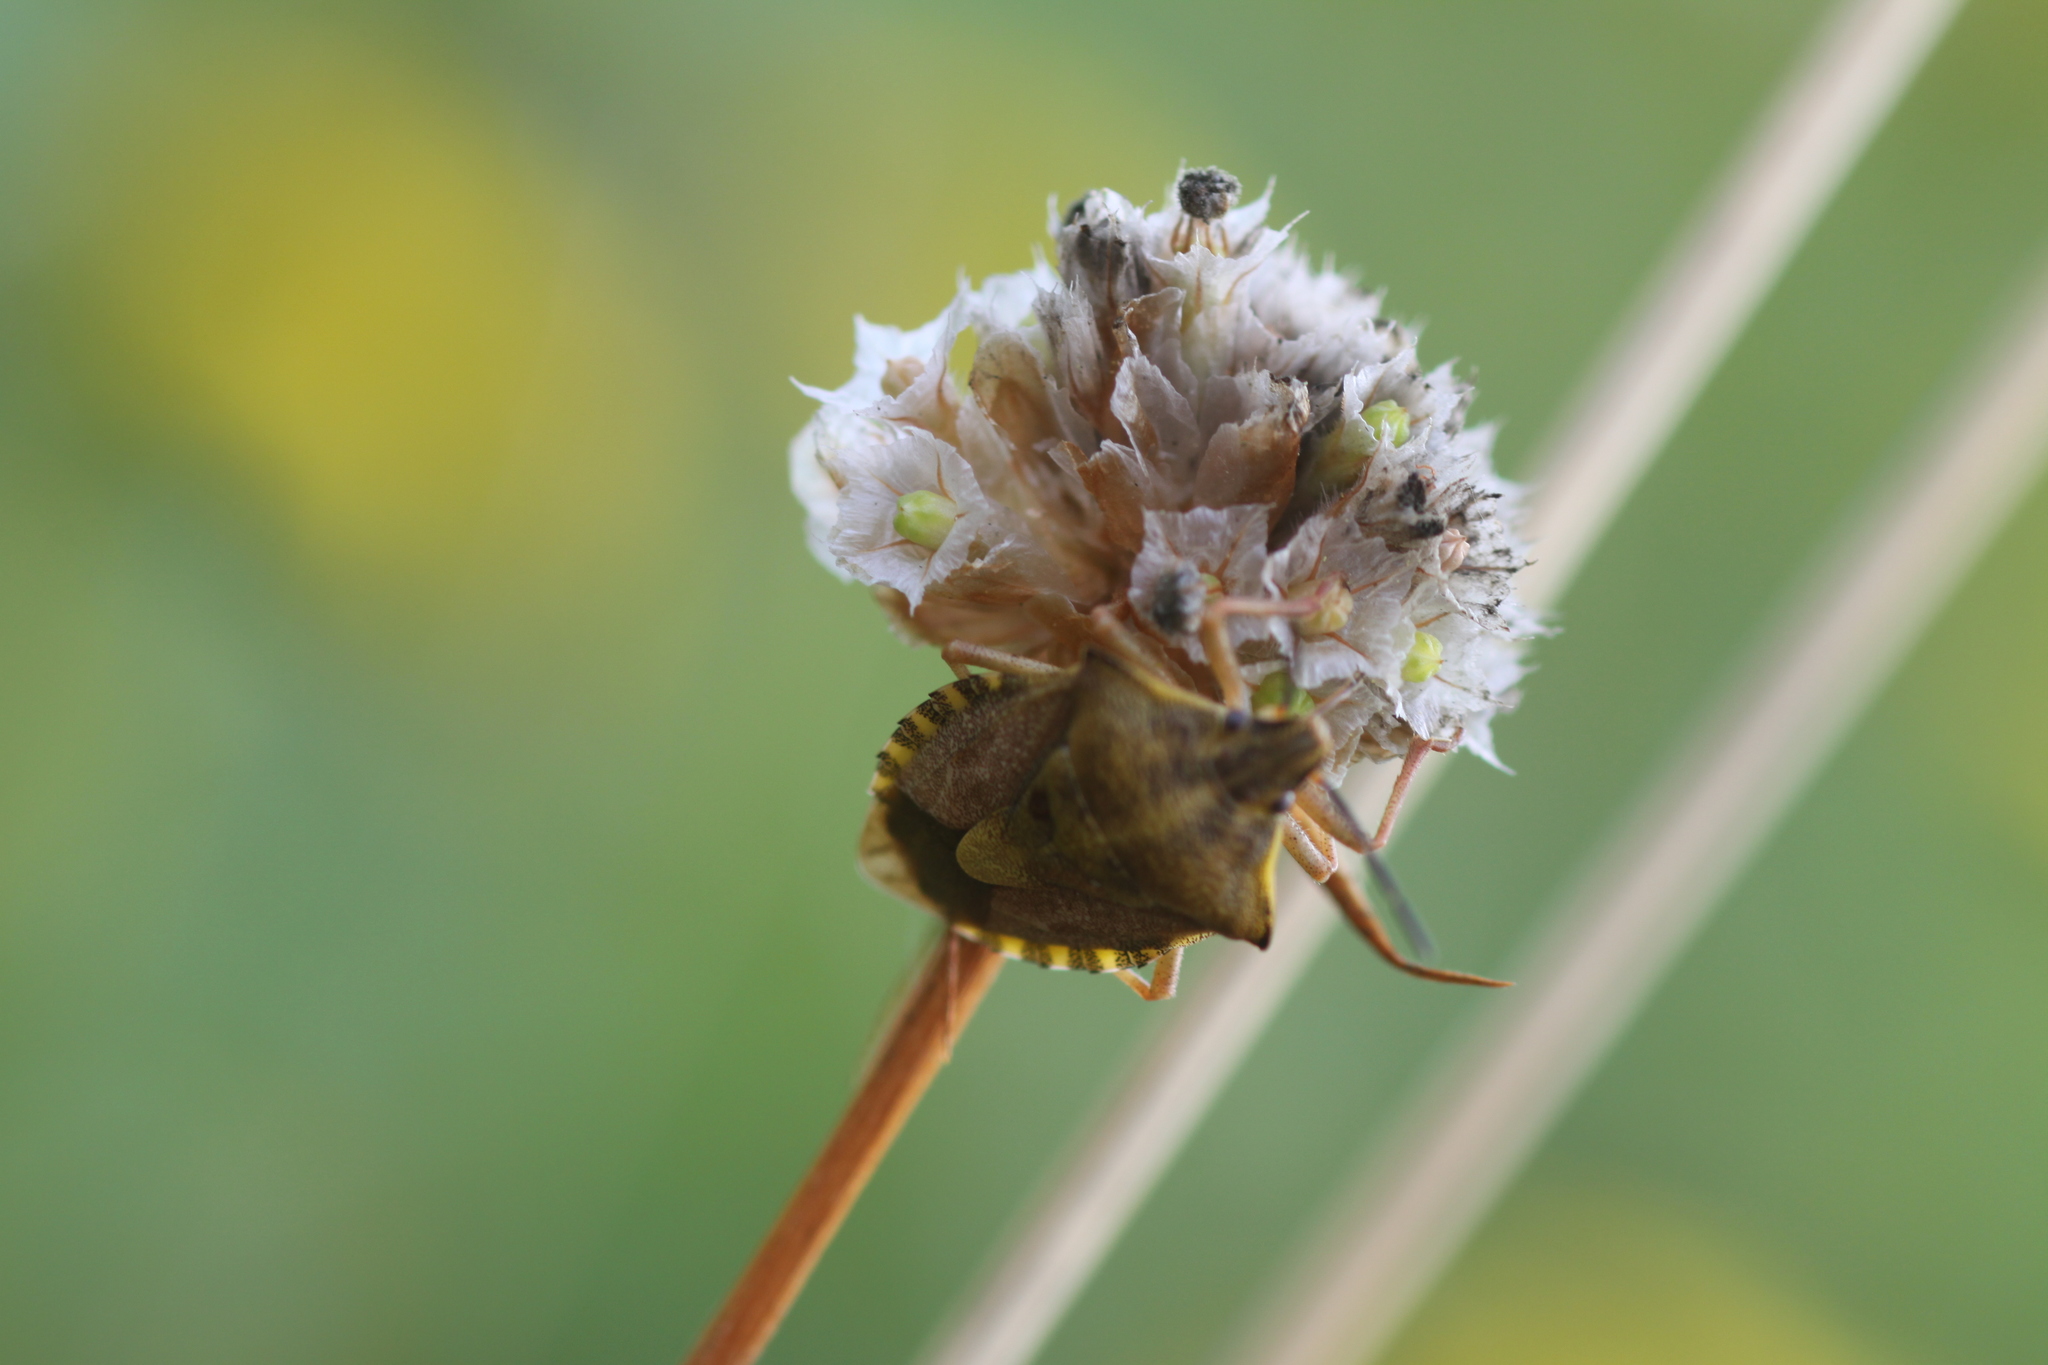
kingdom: Animalia
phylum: Arthropoda
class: Insecta
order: Hemiptera
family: Pentatomidae
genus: Carpocoris
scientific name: Carpocoris purpureipennis
